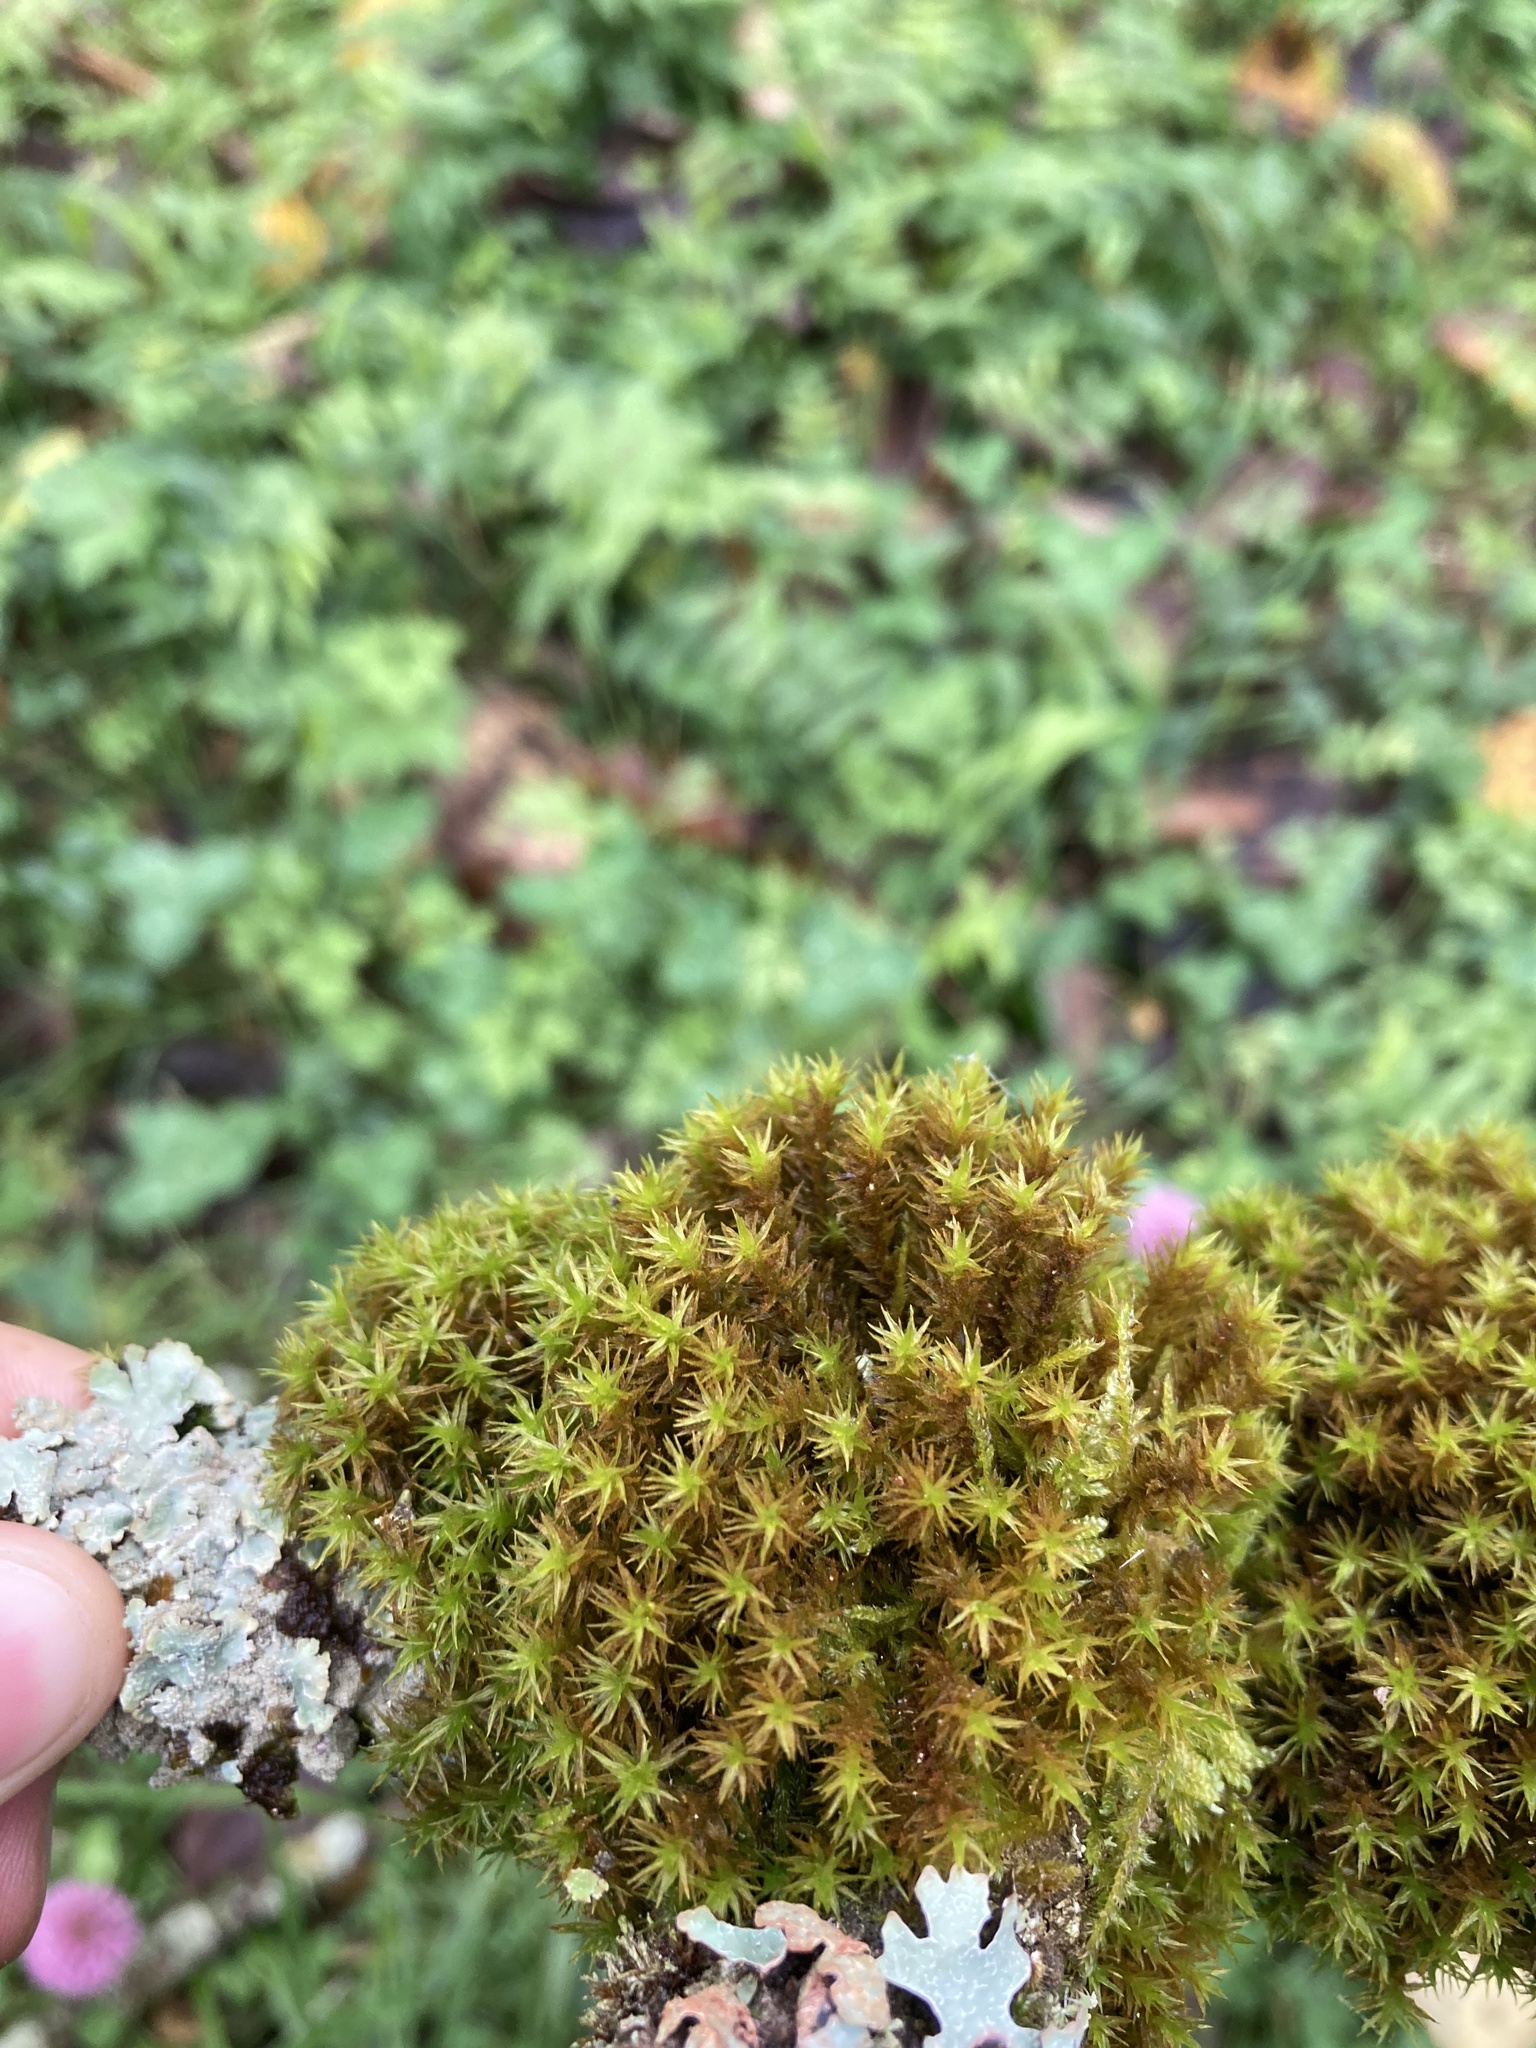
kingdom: Plantae
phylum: Bryophyta
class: Bryopsida
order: Orthotrichales
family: Orthotrichaceae
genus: Pulvigera
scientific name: Pulvigera lyellii
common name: Lyell's bristle-moss
